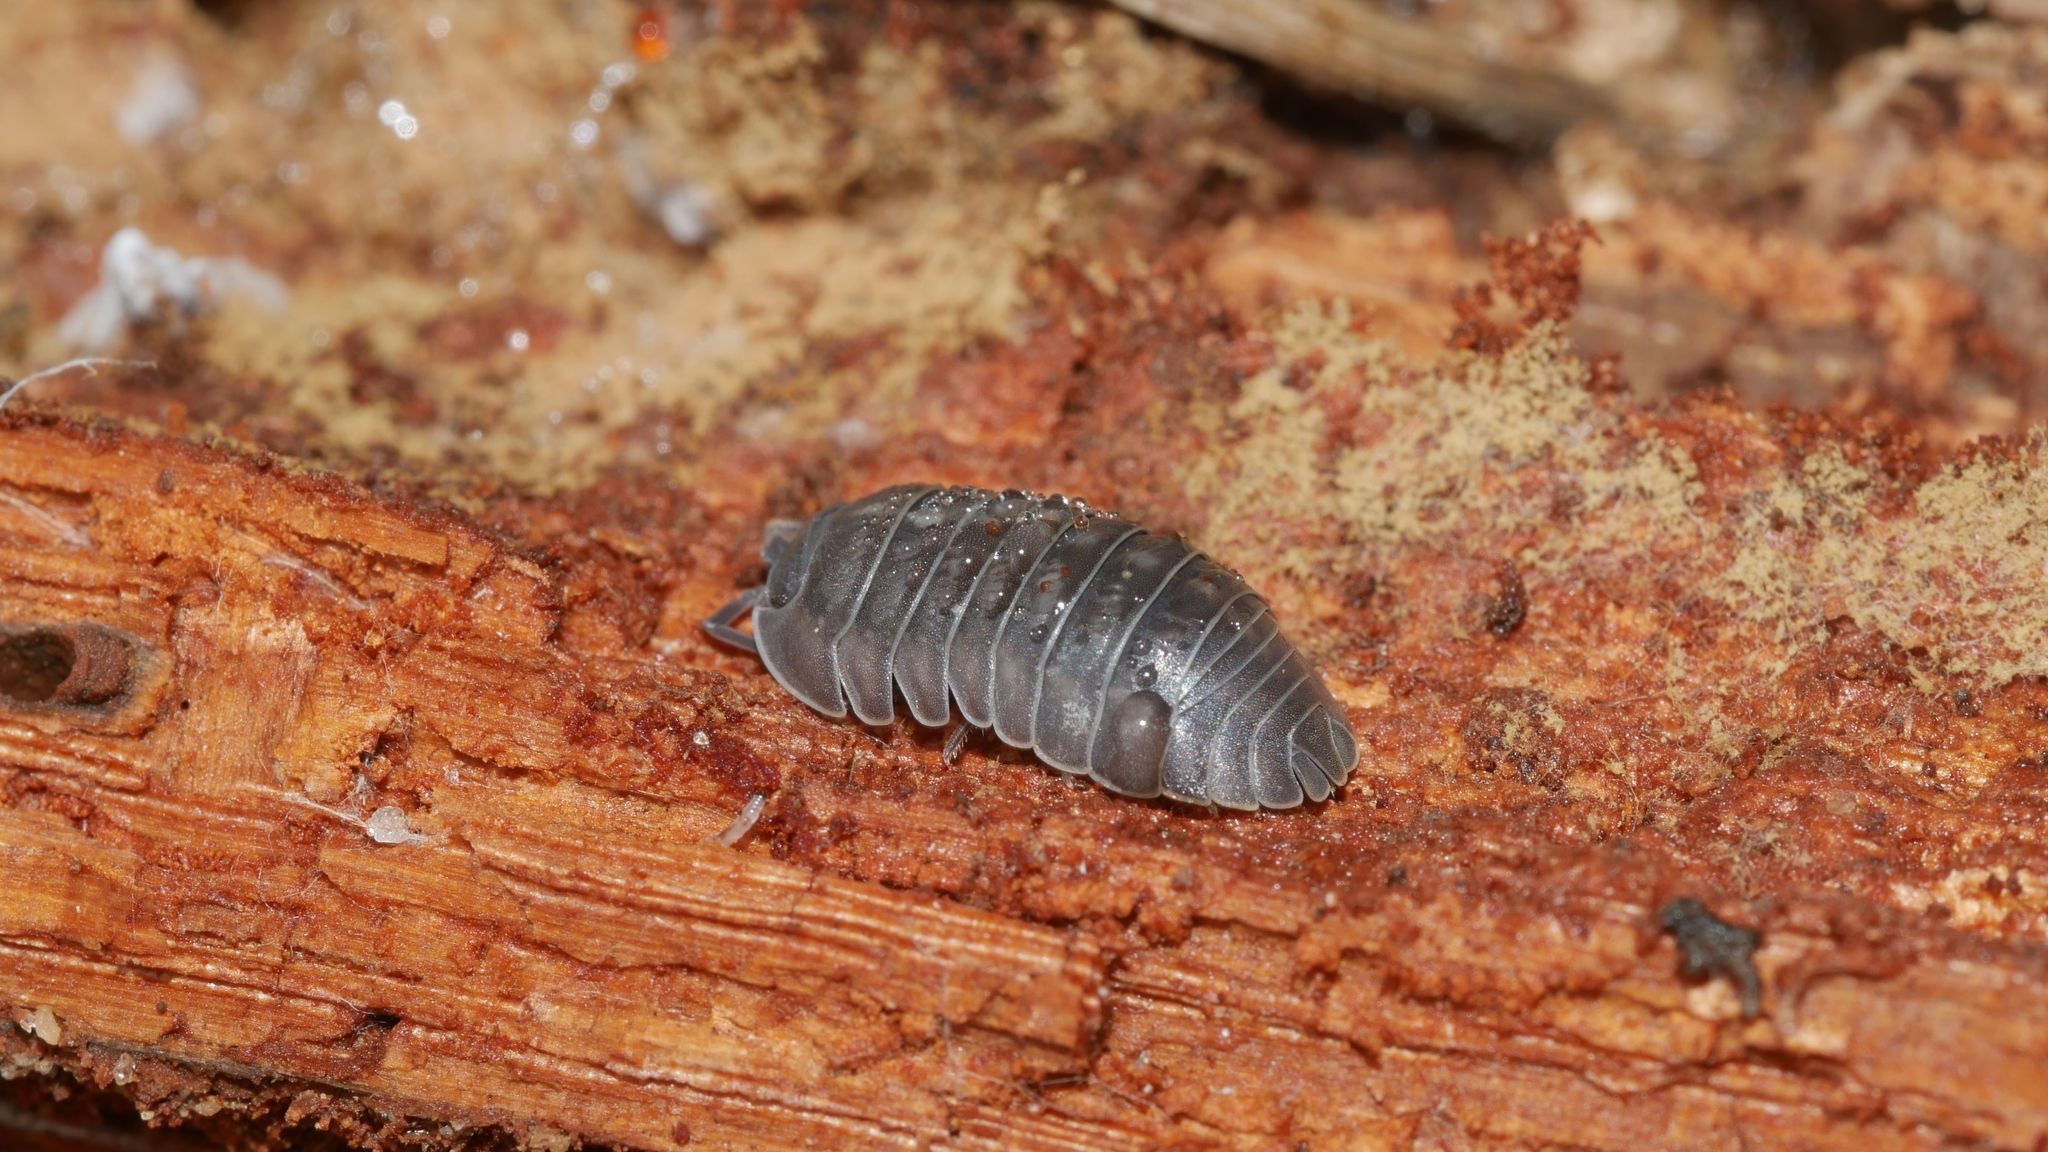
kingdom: Animalia
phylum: Arthropoda
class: Malacostraca
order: Isopoda
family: Armadillidiidae
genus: Armadillidium
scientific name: Armadillidium nasatum
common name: Isopod
